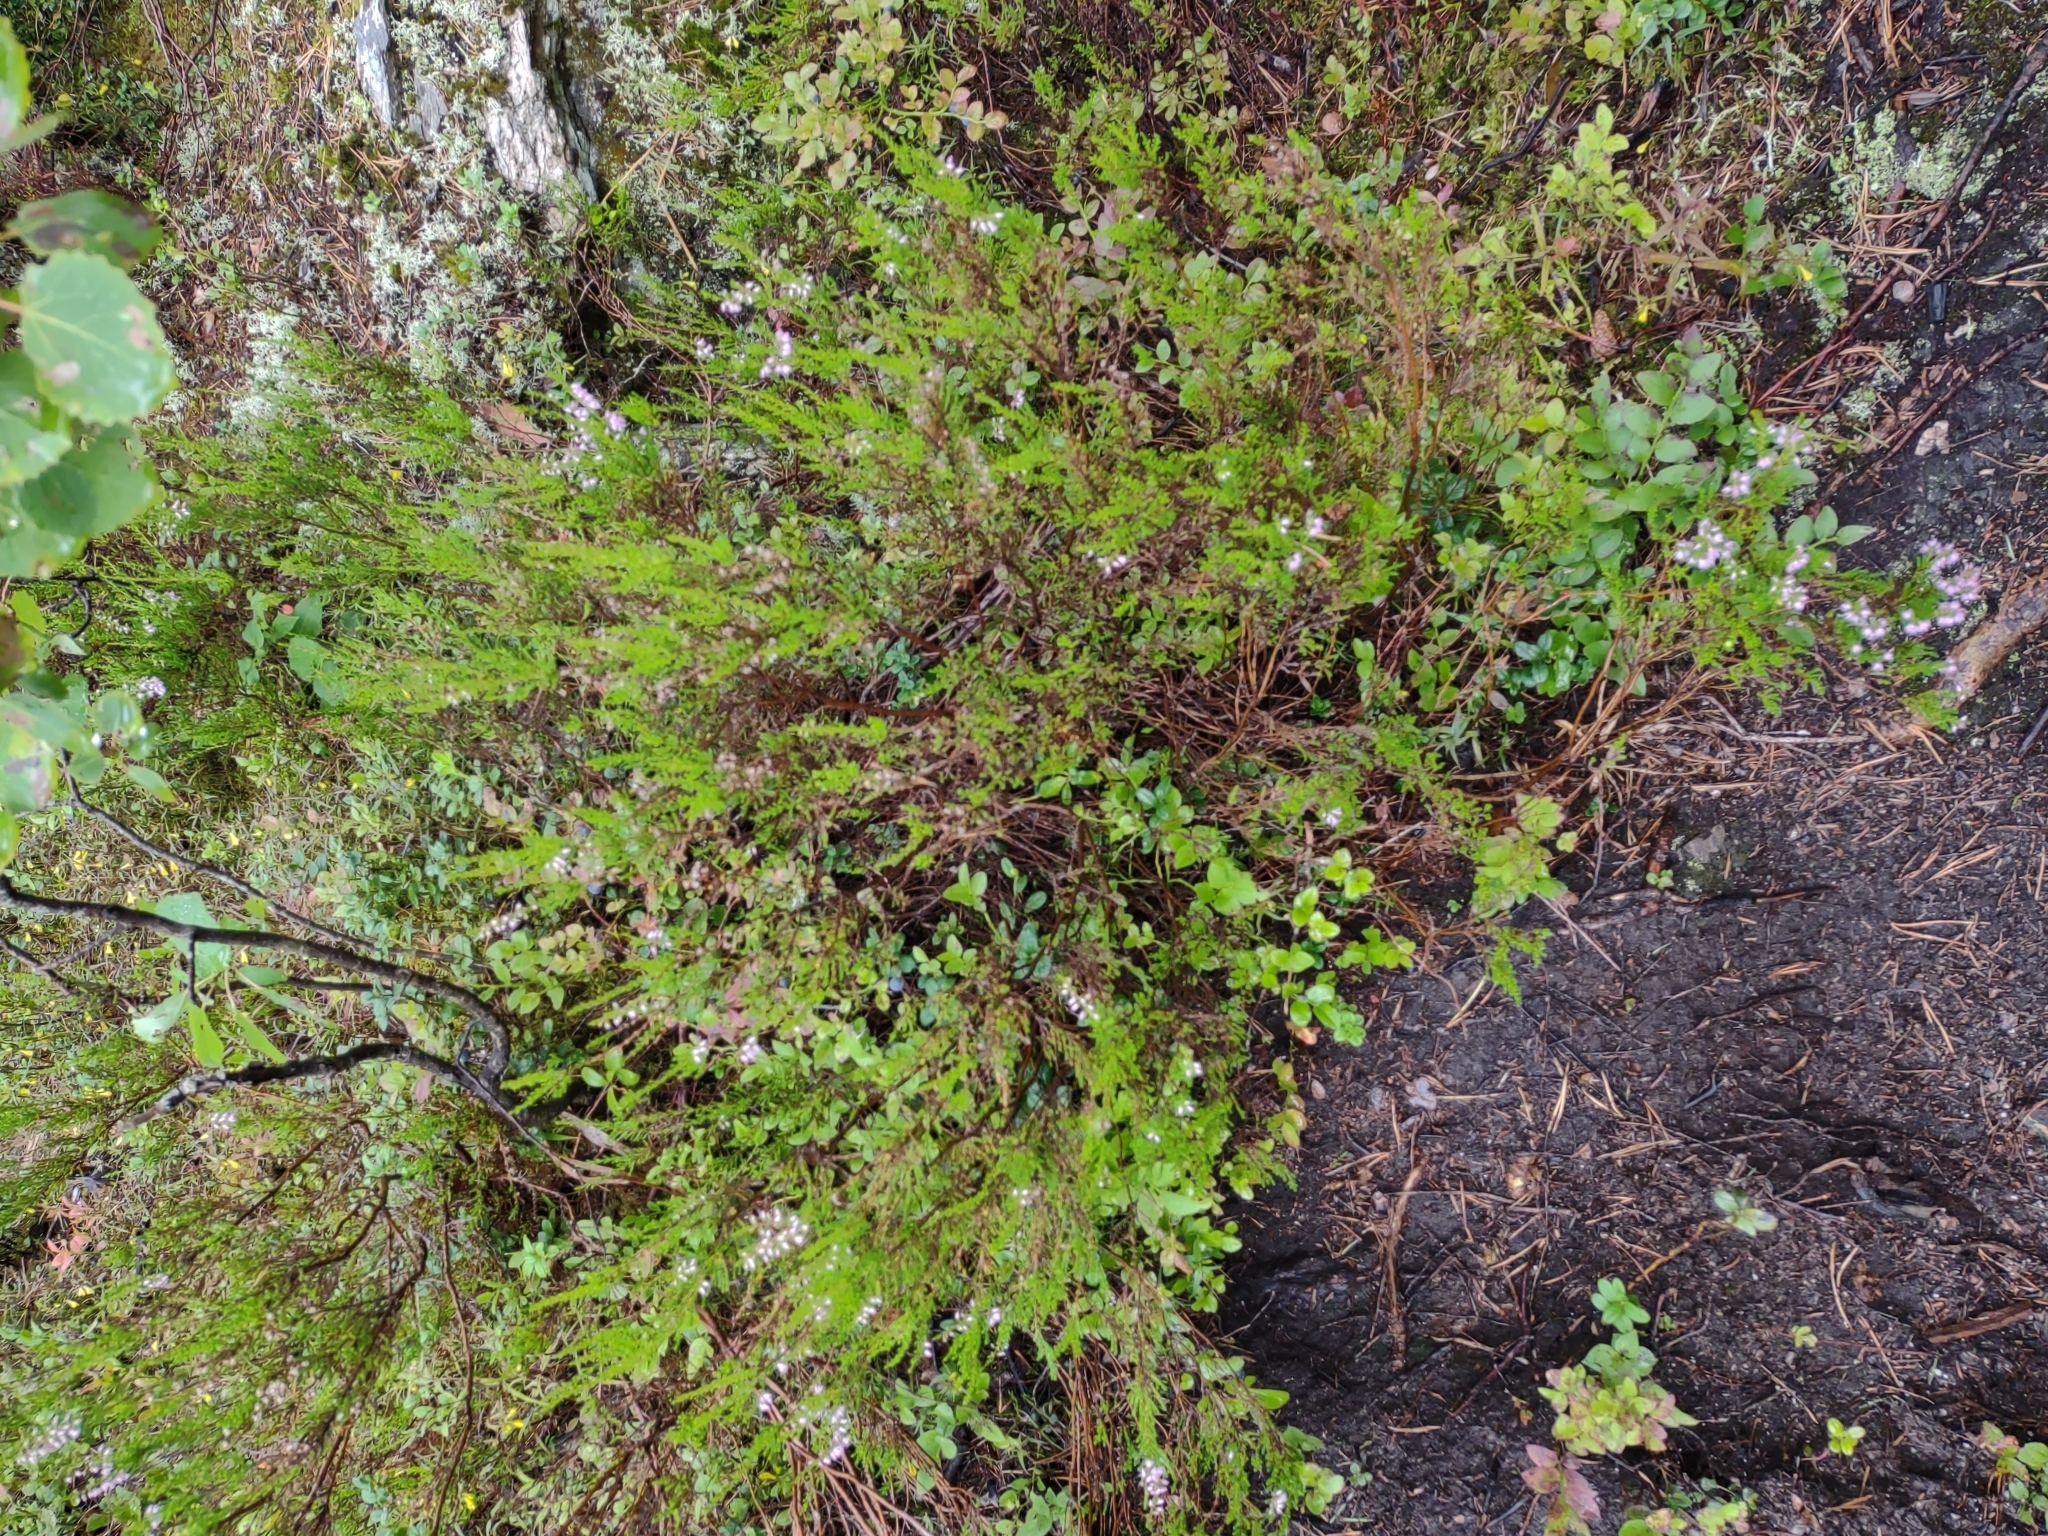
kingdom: Plantae
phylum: Tracheophyta
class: Magnoliopsida
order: Ericales
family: Ericaceae
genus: Calluna
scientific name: Calluna vulgaris
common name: Heather
